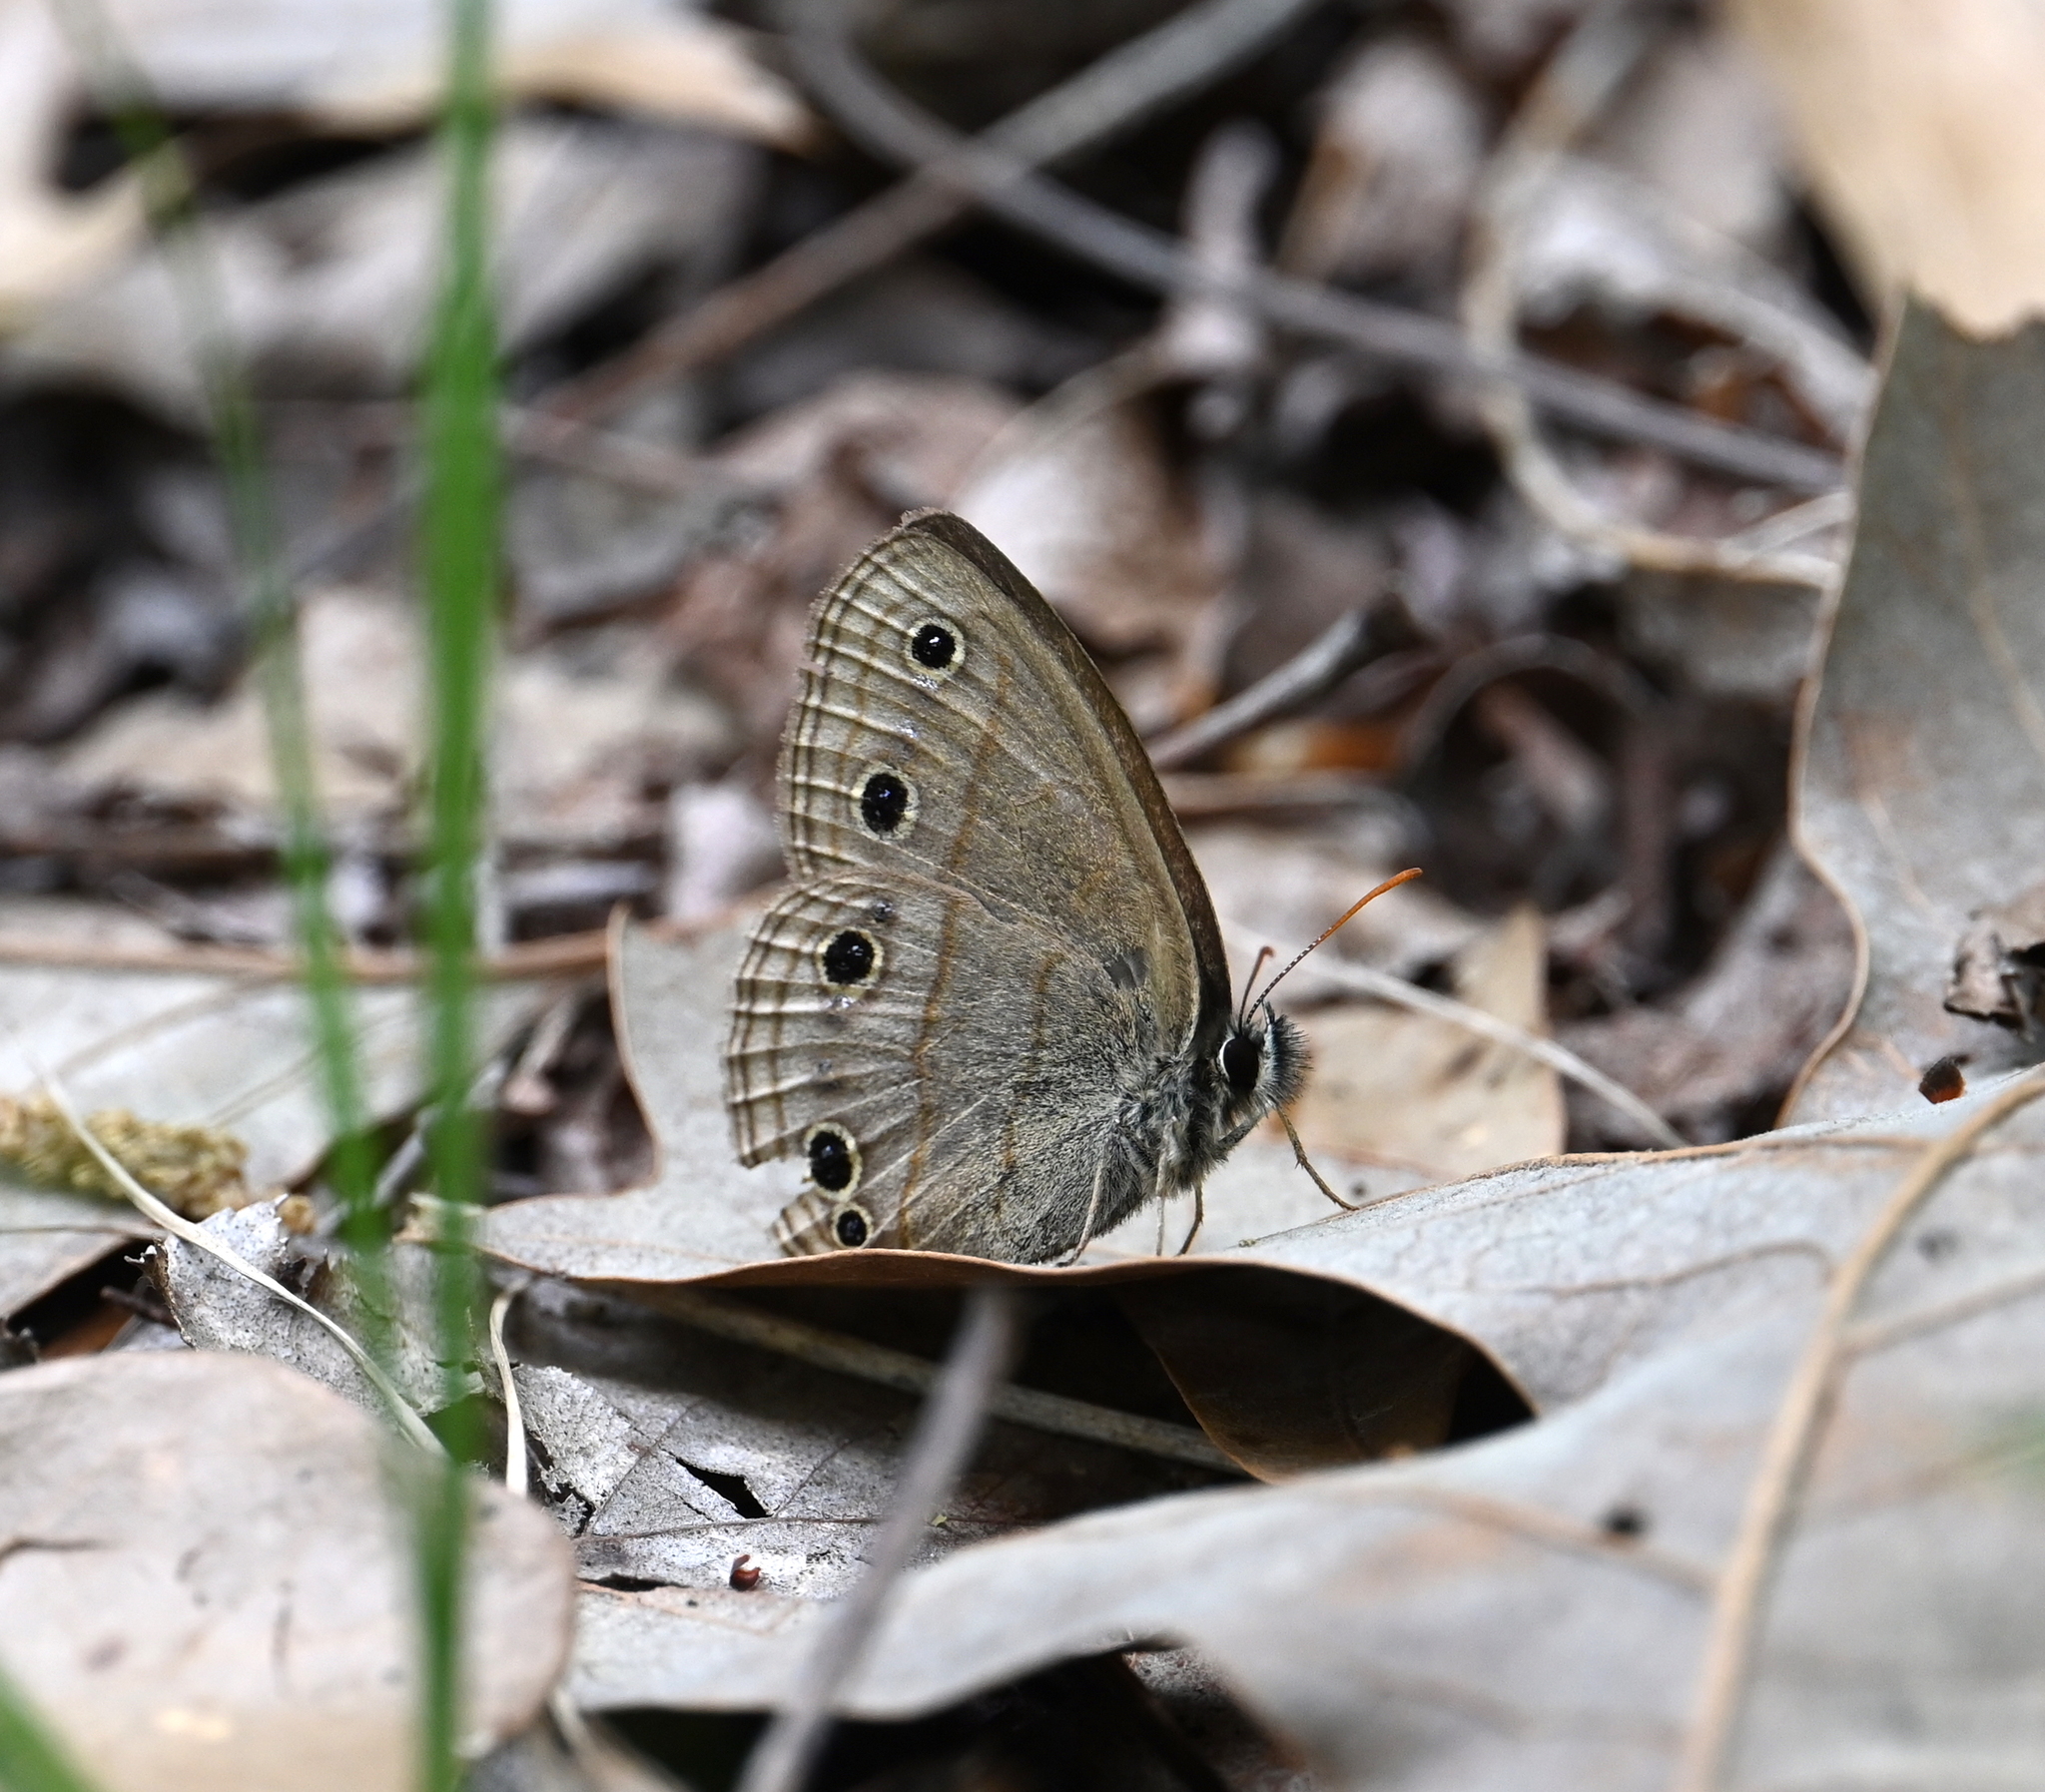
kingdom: Animalia
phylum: Arthropoda
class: Insecta
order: Lepidoptera
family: Nymphalidae
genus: Euptychia
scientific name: Euptychia cymela
